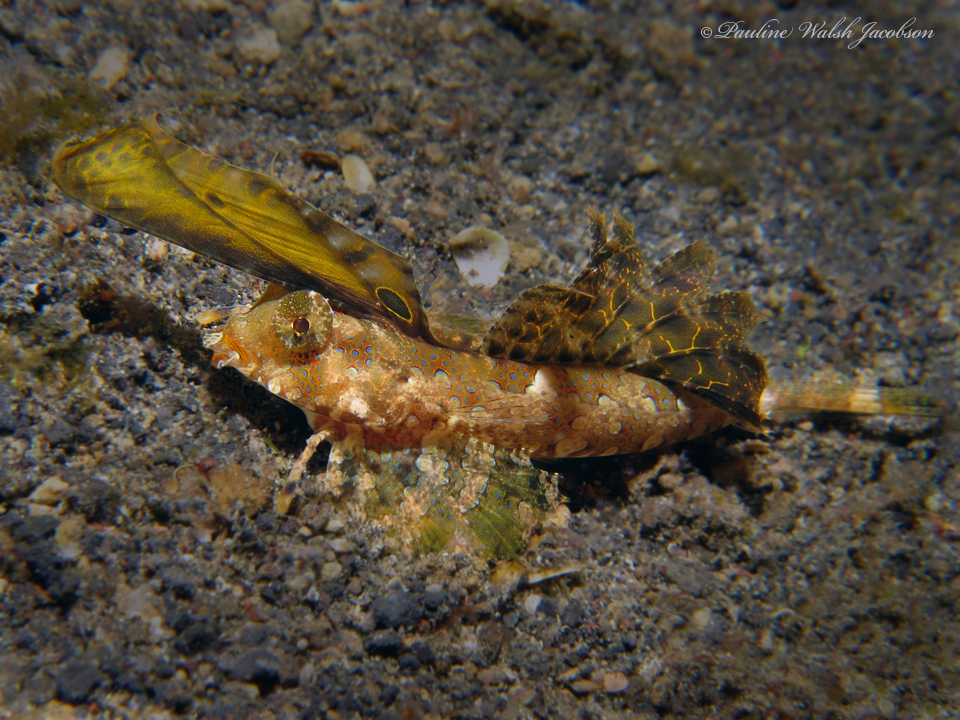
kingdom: Animalia
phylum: Chordata
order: Perciformes
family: Callionymidae
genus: Dactylopus
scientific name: Dactylopus kuiteri
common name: Kuiter's dragonet
